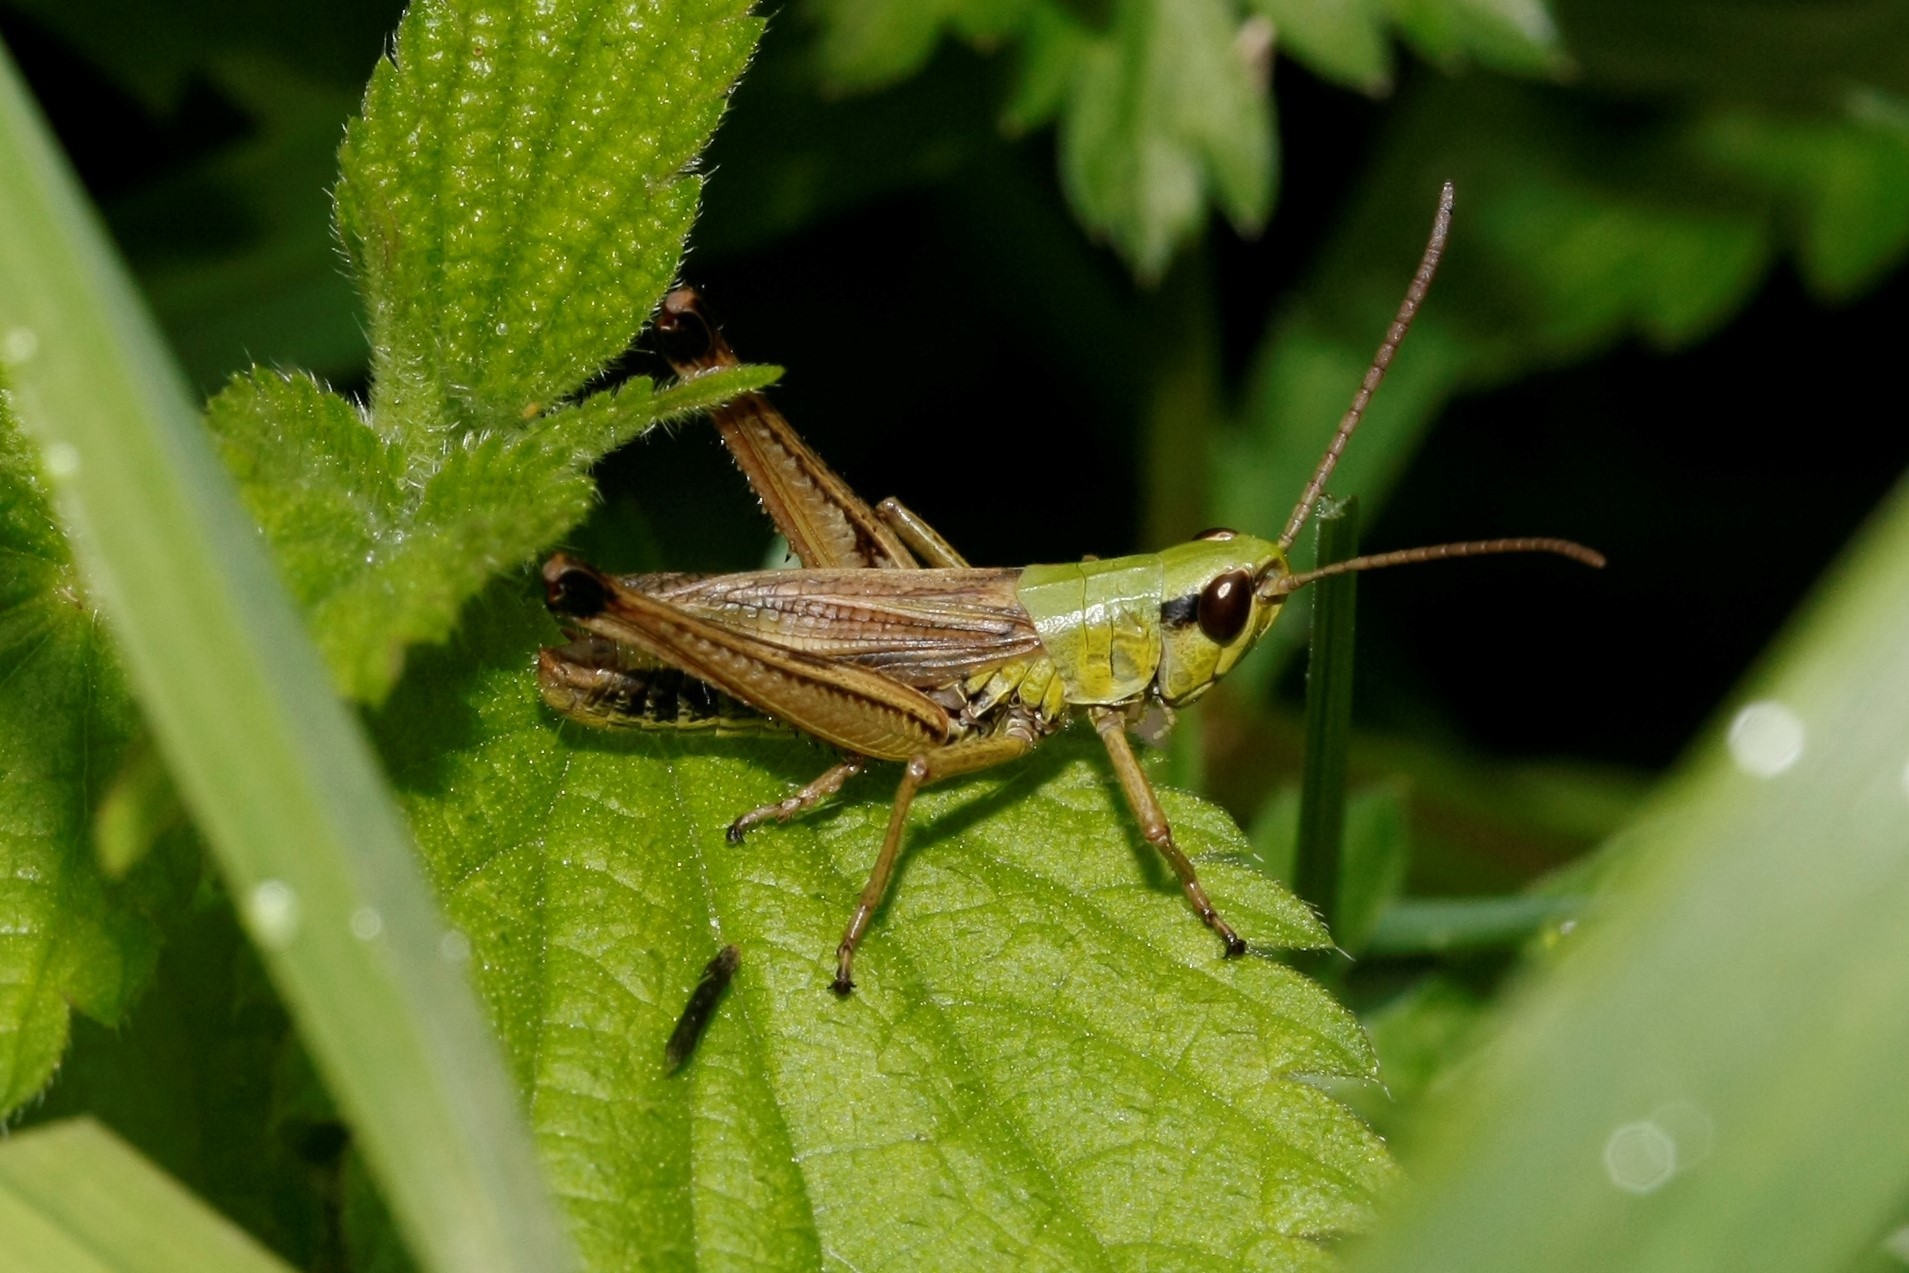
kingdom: Animalia
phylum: Arthropoda
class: Insecta
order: Orthoptera
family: Acrididae
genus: Pseudochorthippus
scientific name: Pseudochorthippus parallelus
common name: Meadow grasshopper
